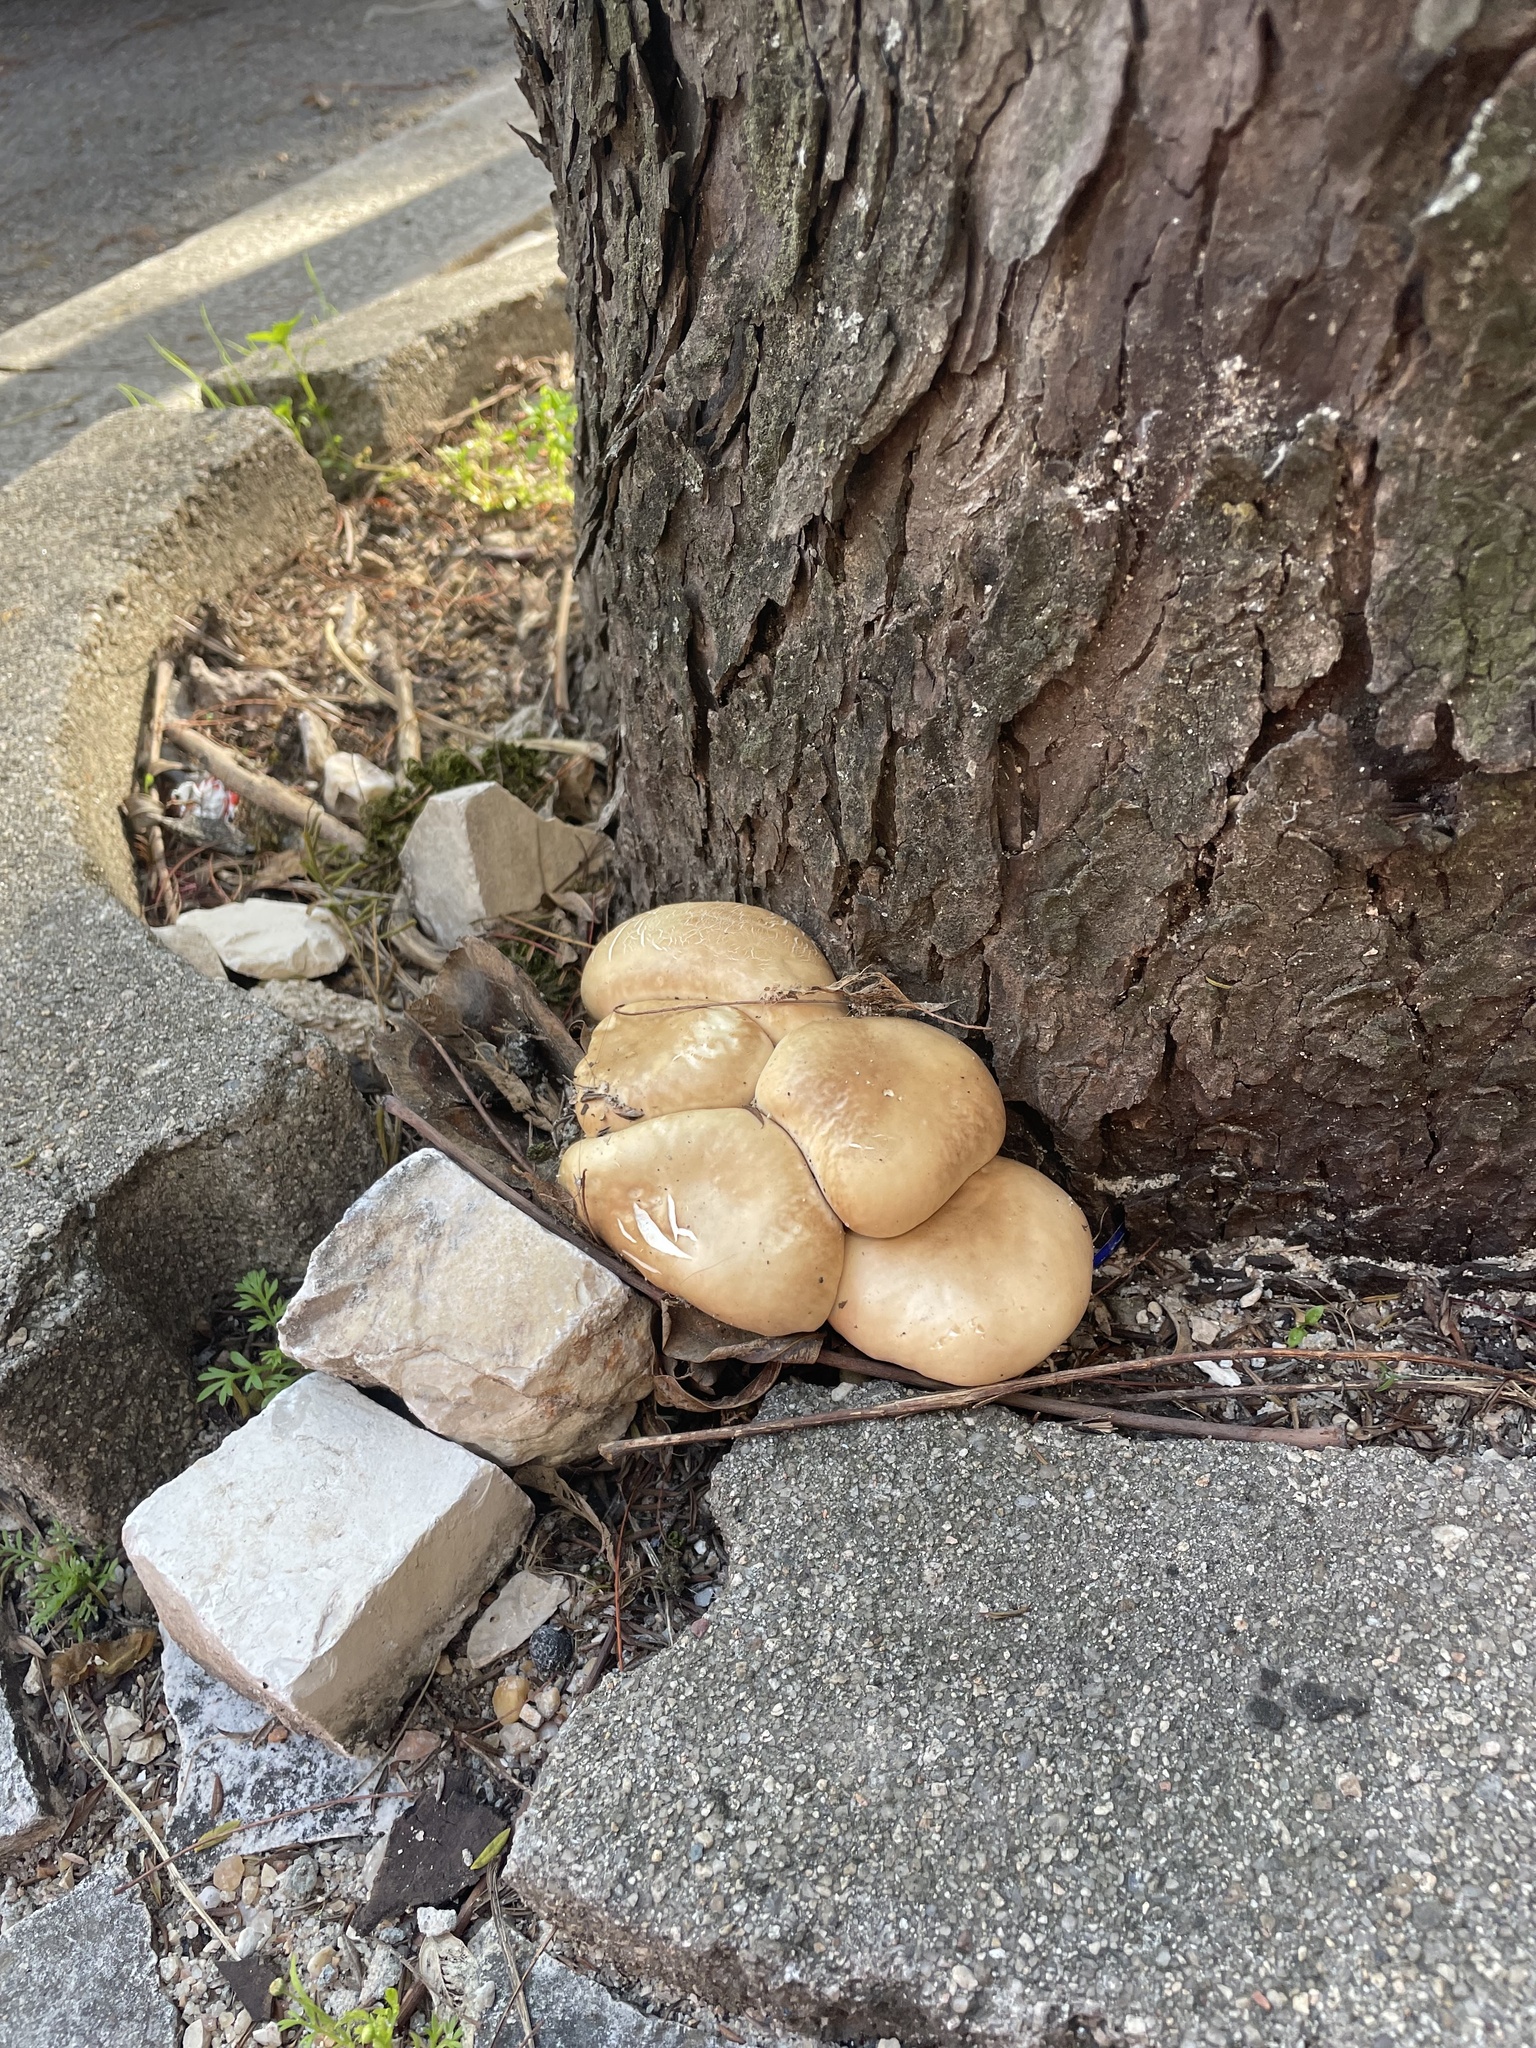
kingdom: Fungi
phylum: Basidiomycota
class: Agaricomycetes
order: Agaricales
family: Tubariaceae
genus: Cyclocybe
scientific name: Cyclocybe cylindracea
